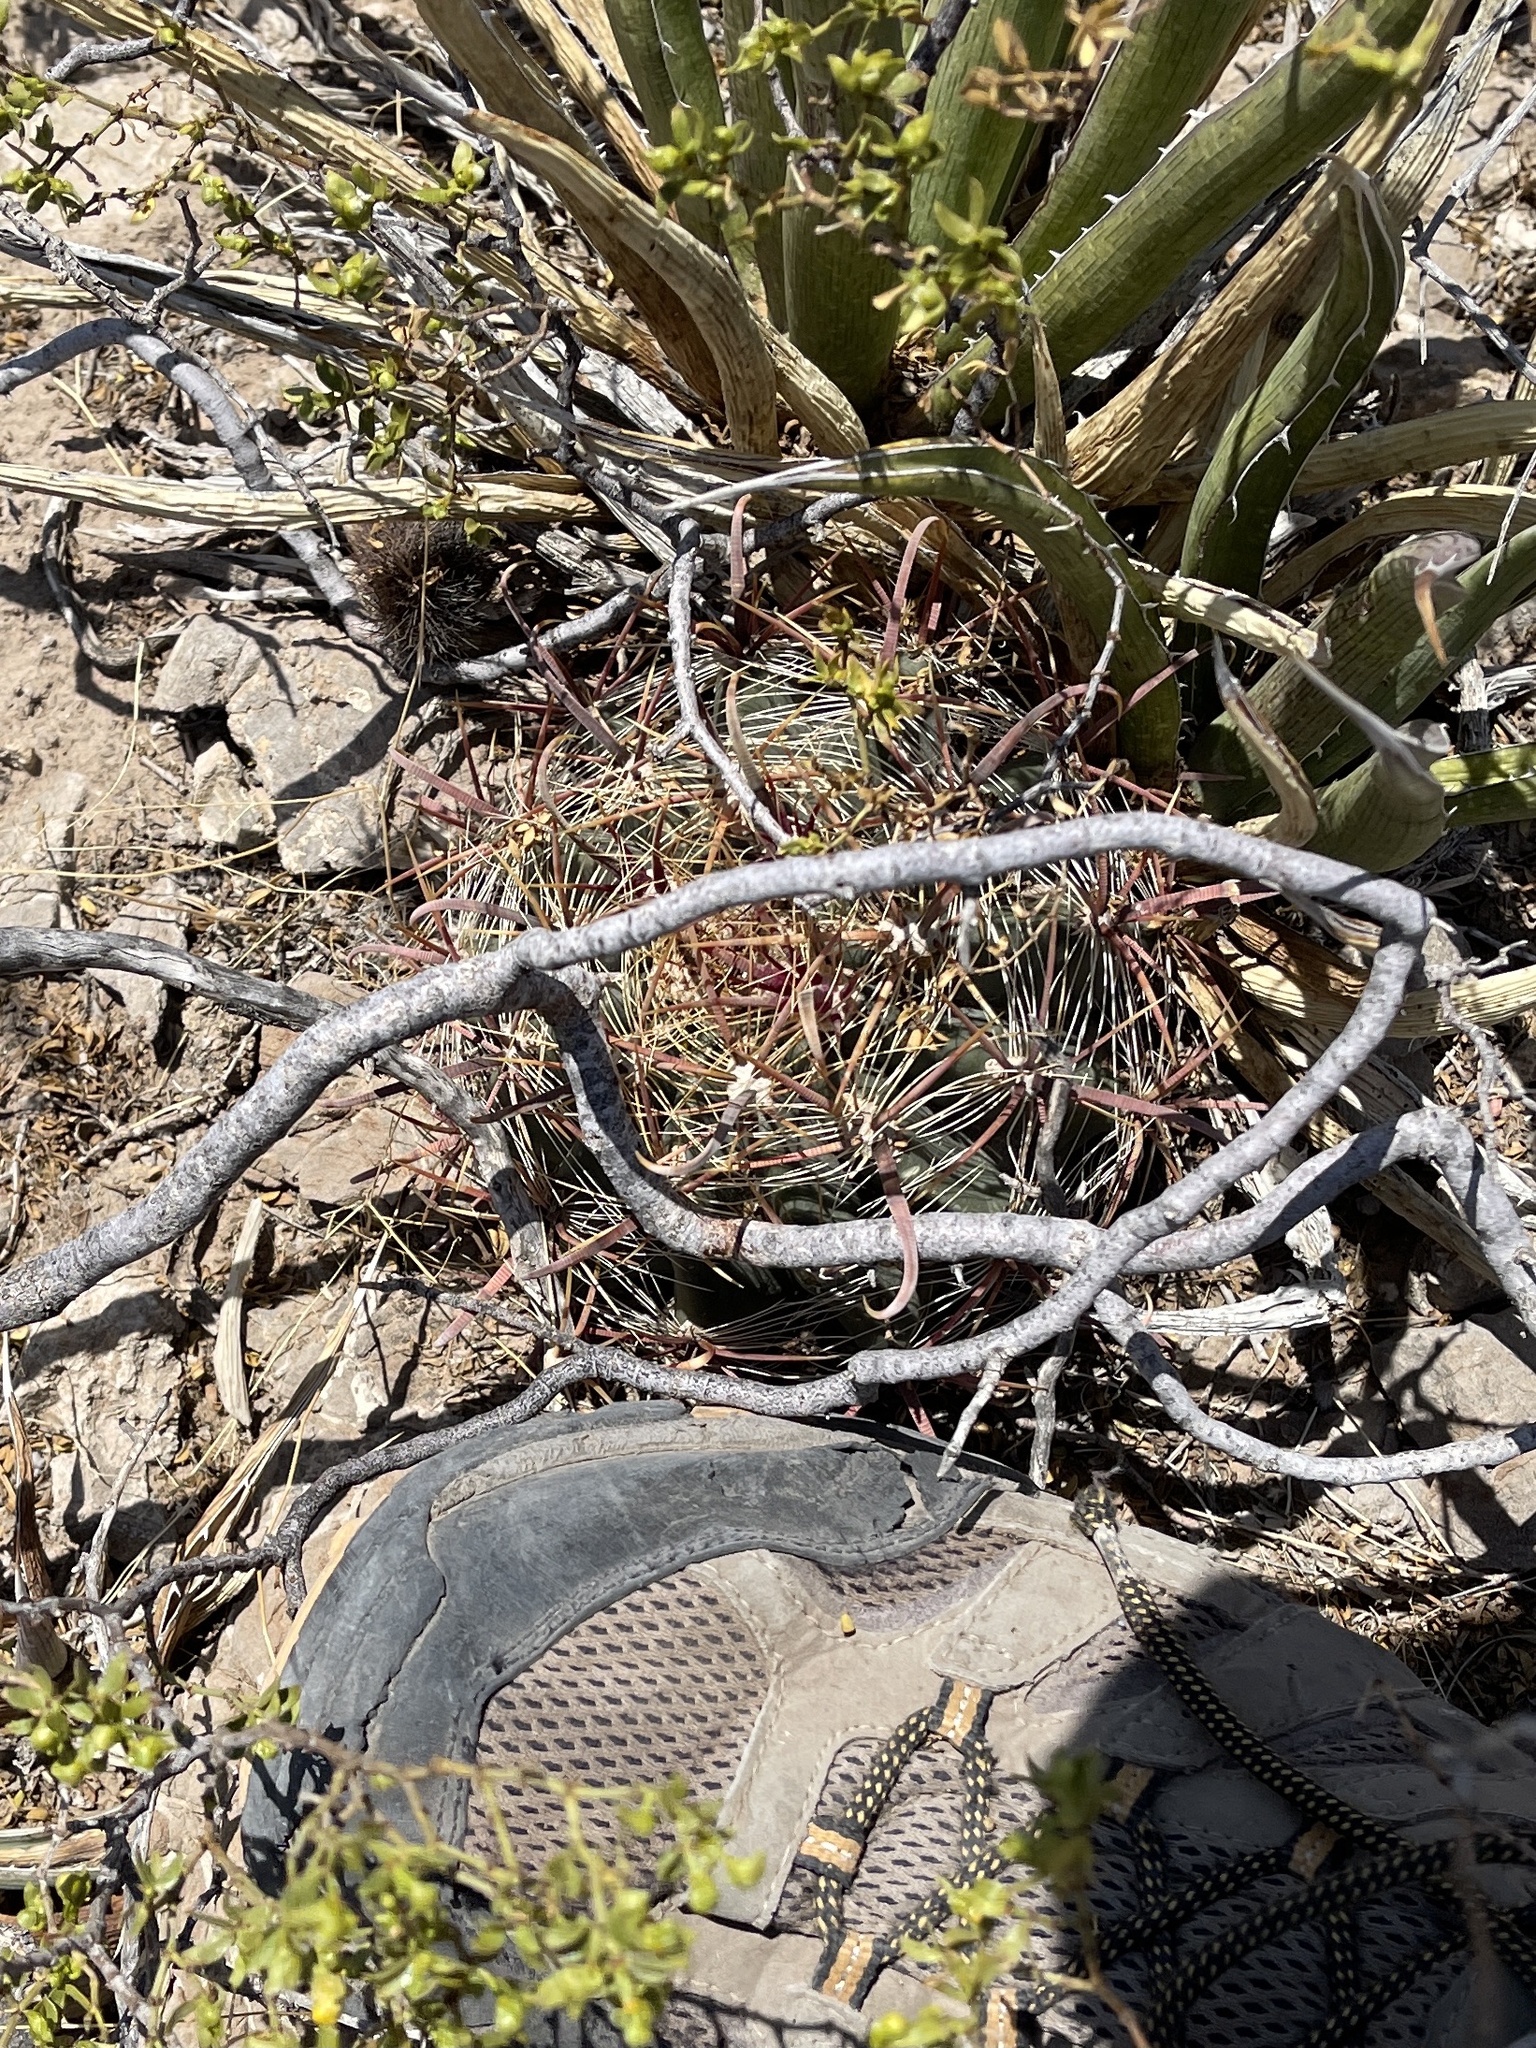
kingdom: Plantae
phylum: Tracheophyta
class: Magnoliopsida
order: Caryophyllales
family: Cactaceae
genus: Ferocactus
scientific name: Ferocactus wislizeni
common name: Candy barrel cactus
